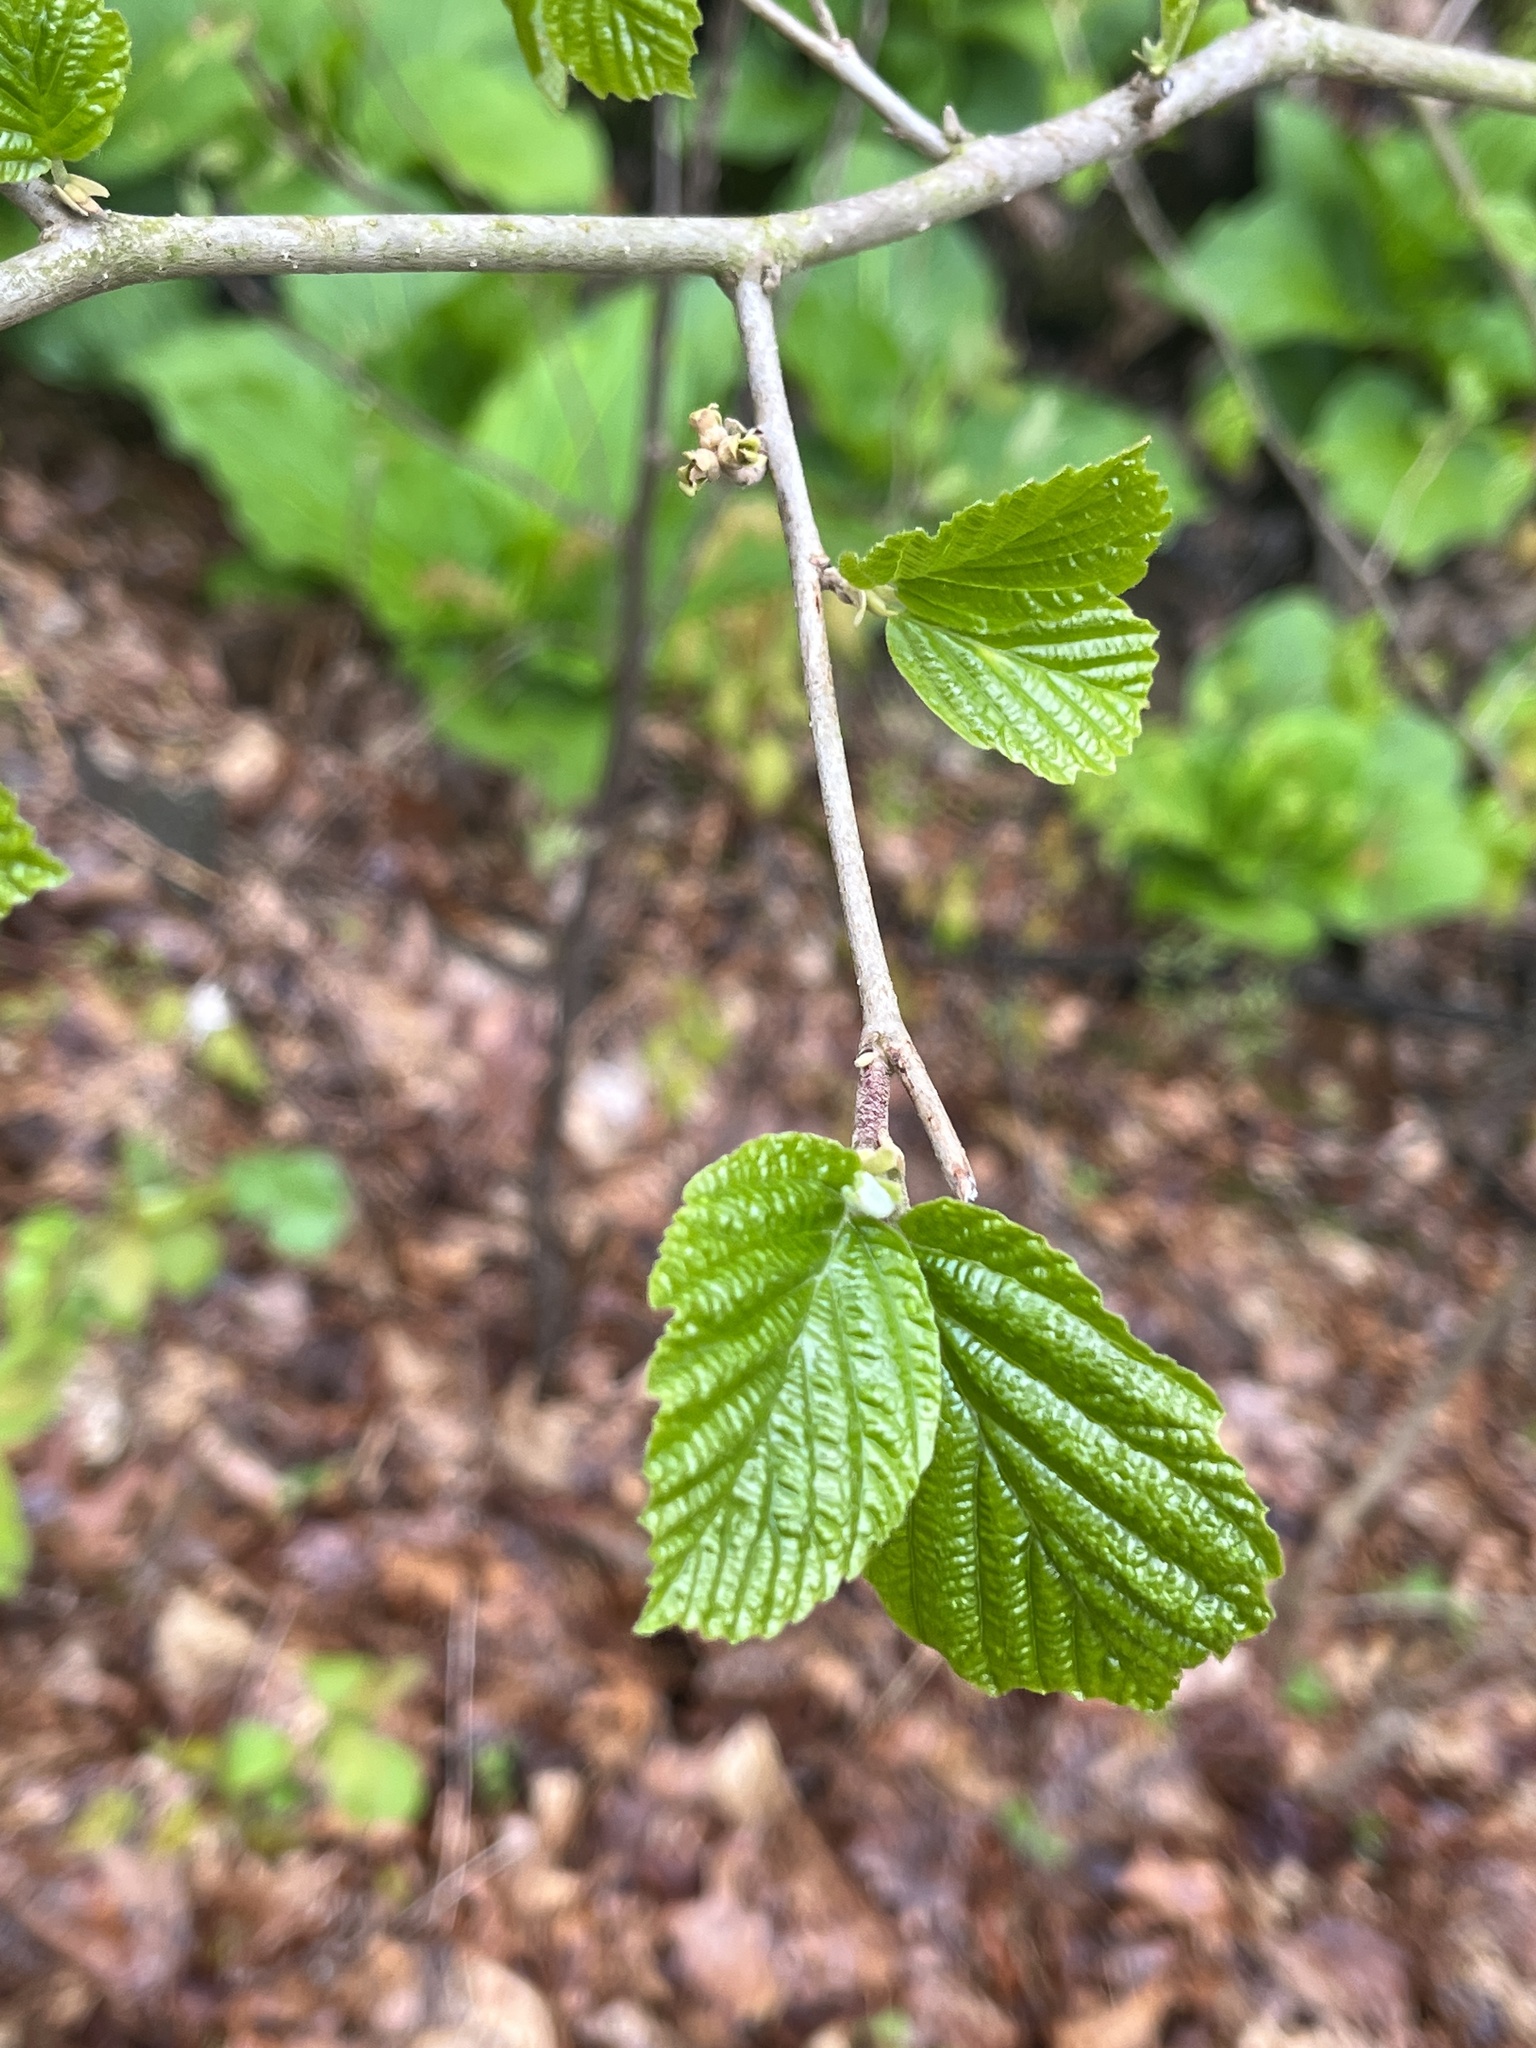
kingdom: Plantae
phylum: Tracheophyta
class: Magnoliopsida
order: Saxifragales
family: Hamamelidaceae
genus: Hamamelis
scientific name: Hamamelis virginiana
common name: Witch-hazel
